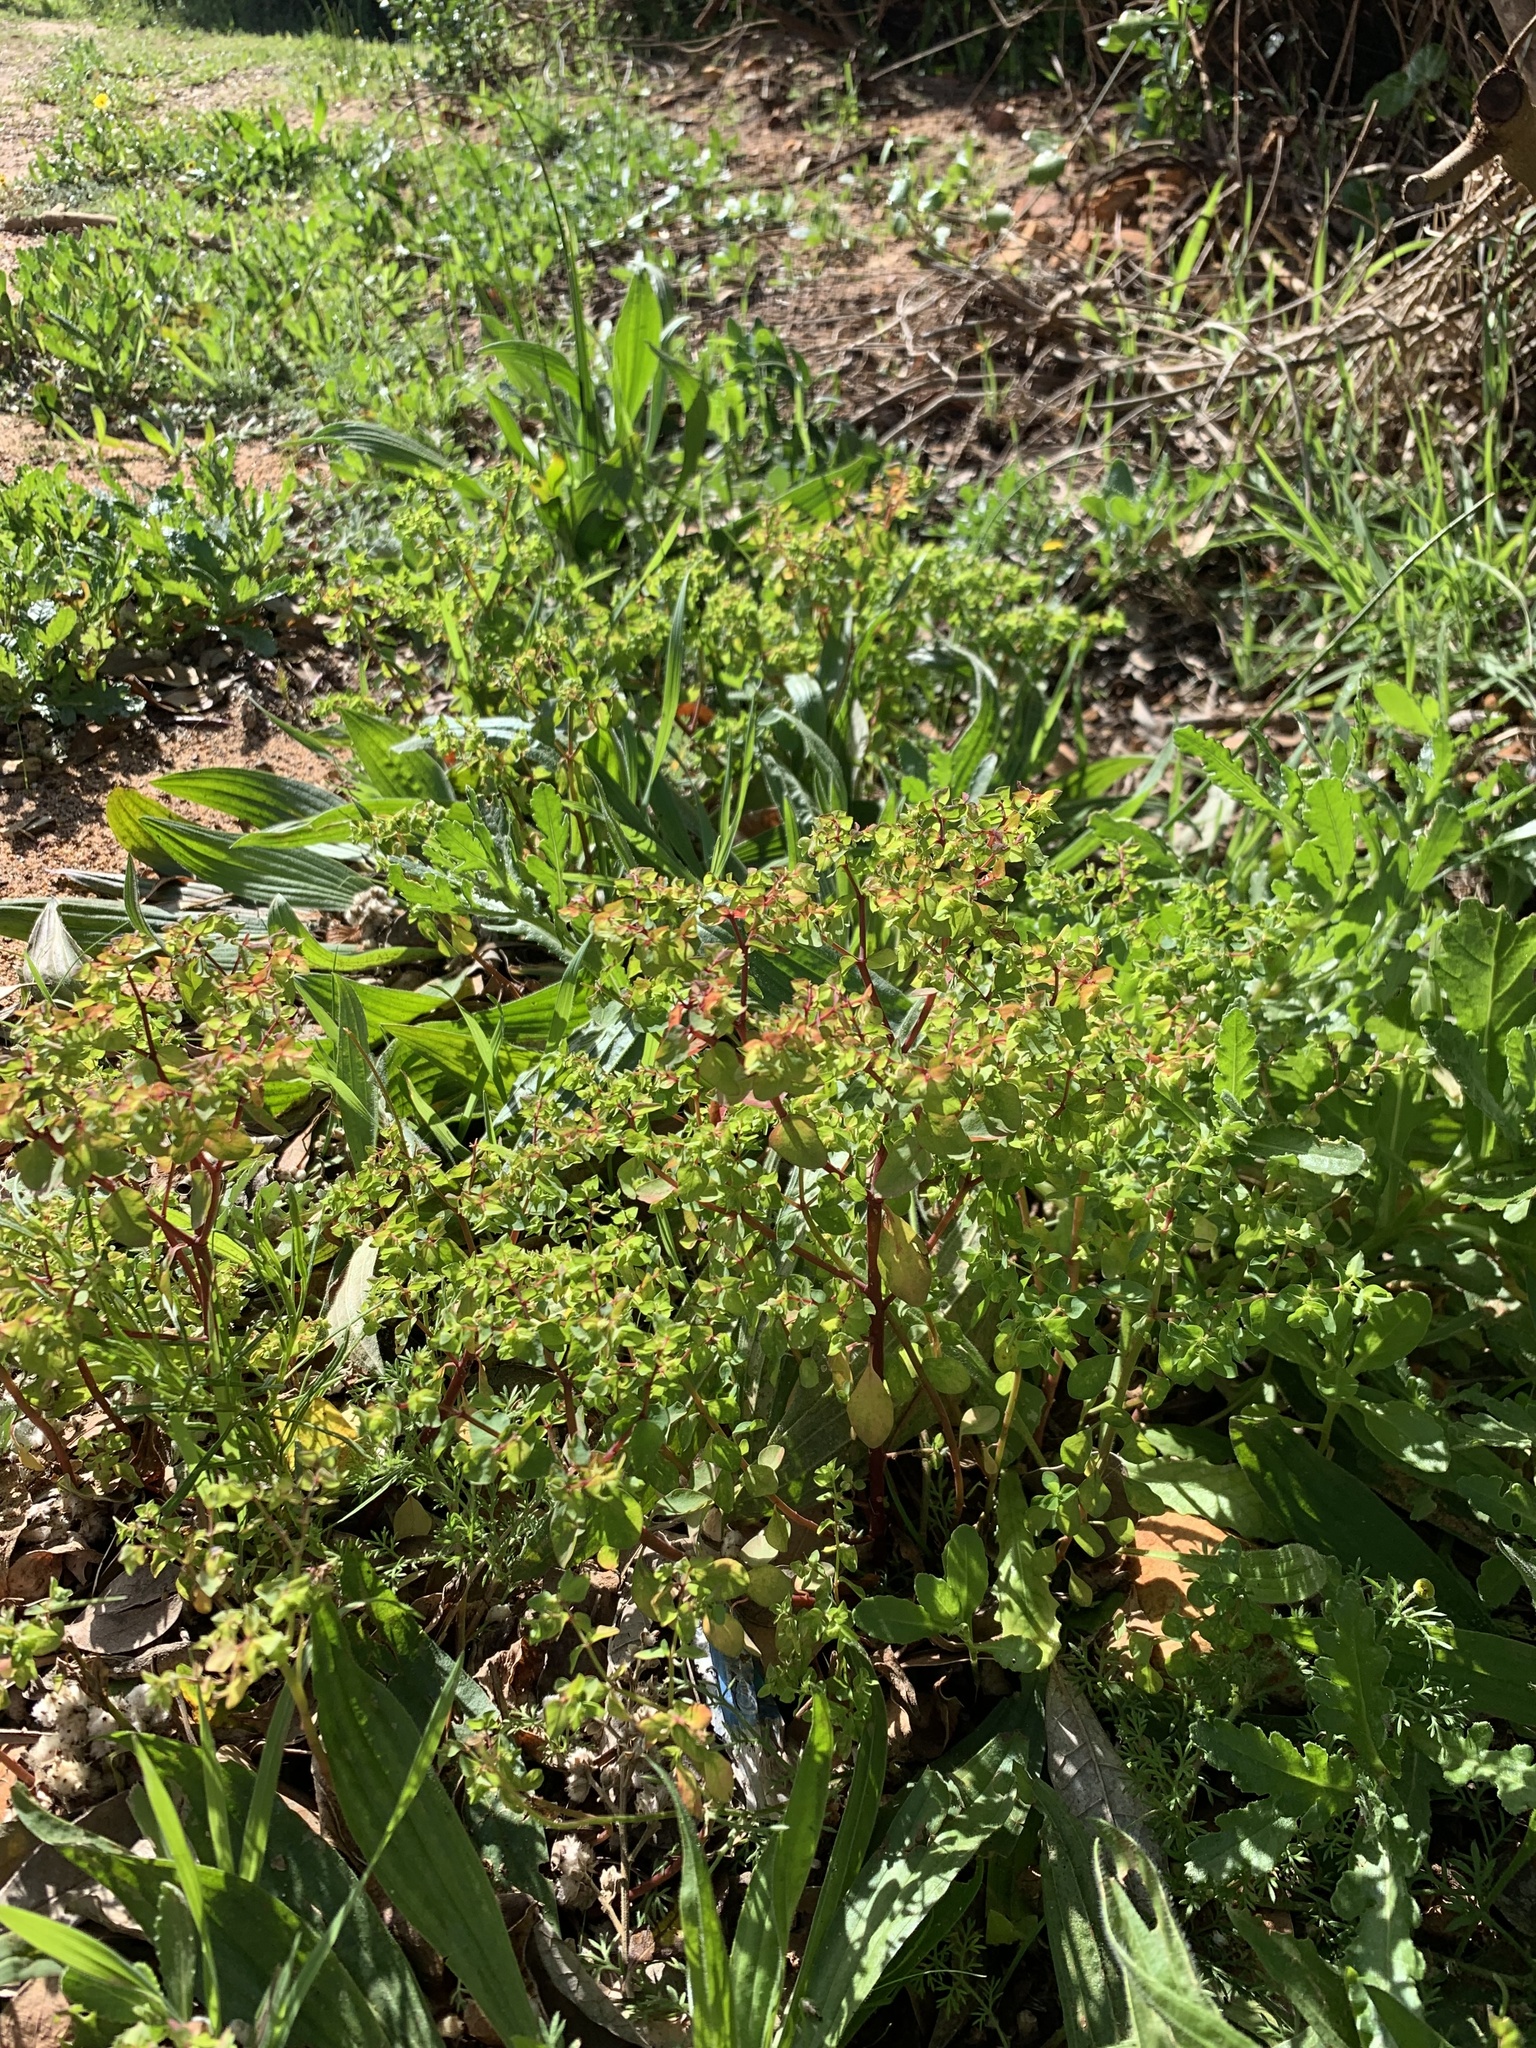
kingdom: Plantae
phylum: Tracheophyta
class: Magnoliopsida
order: Malpighiales
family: Euphorbiaceae
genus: Euphorbia
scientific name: Euphorbia peplus
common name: Petty spurge
